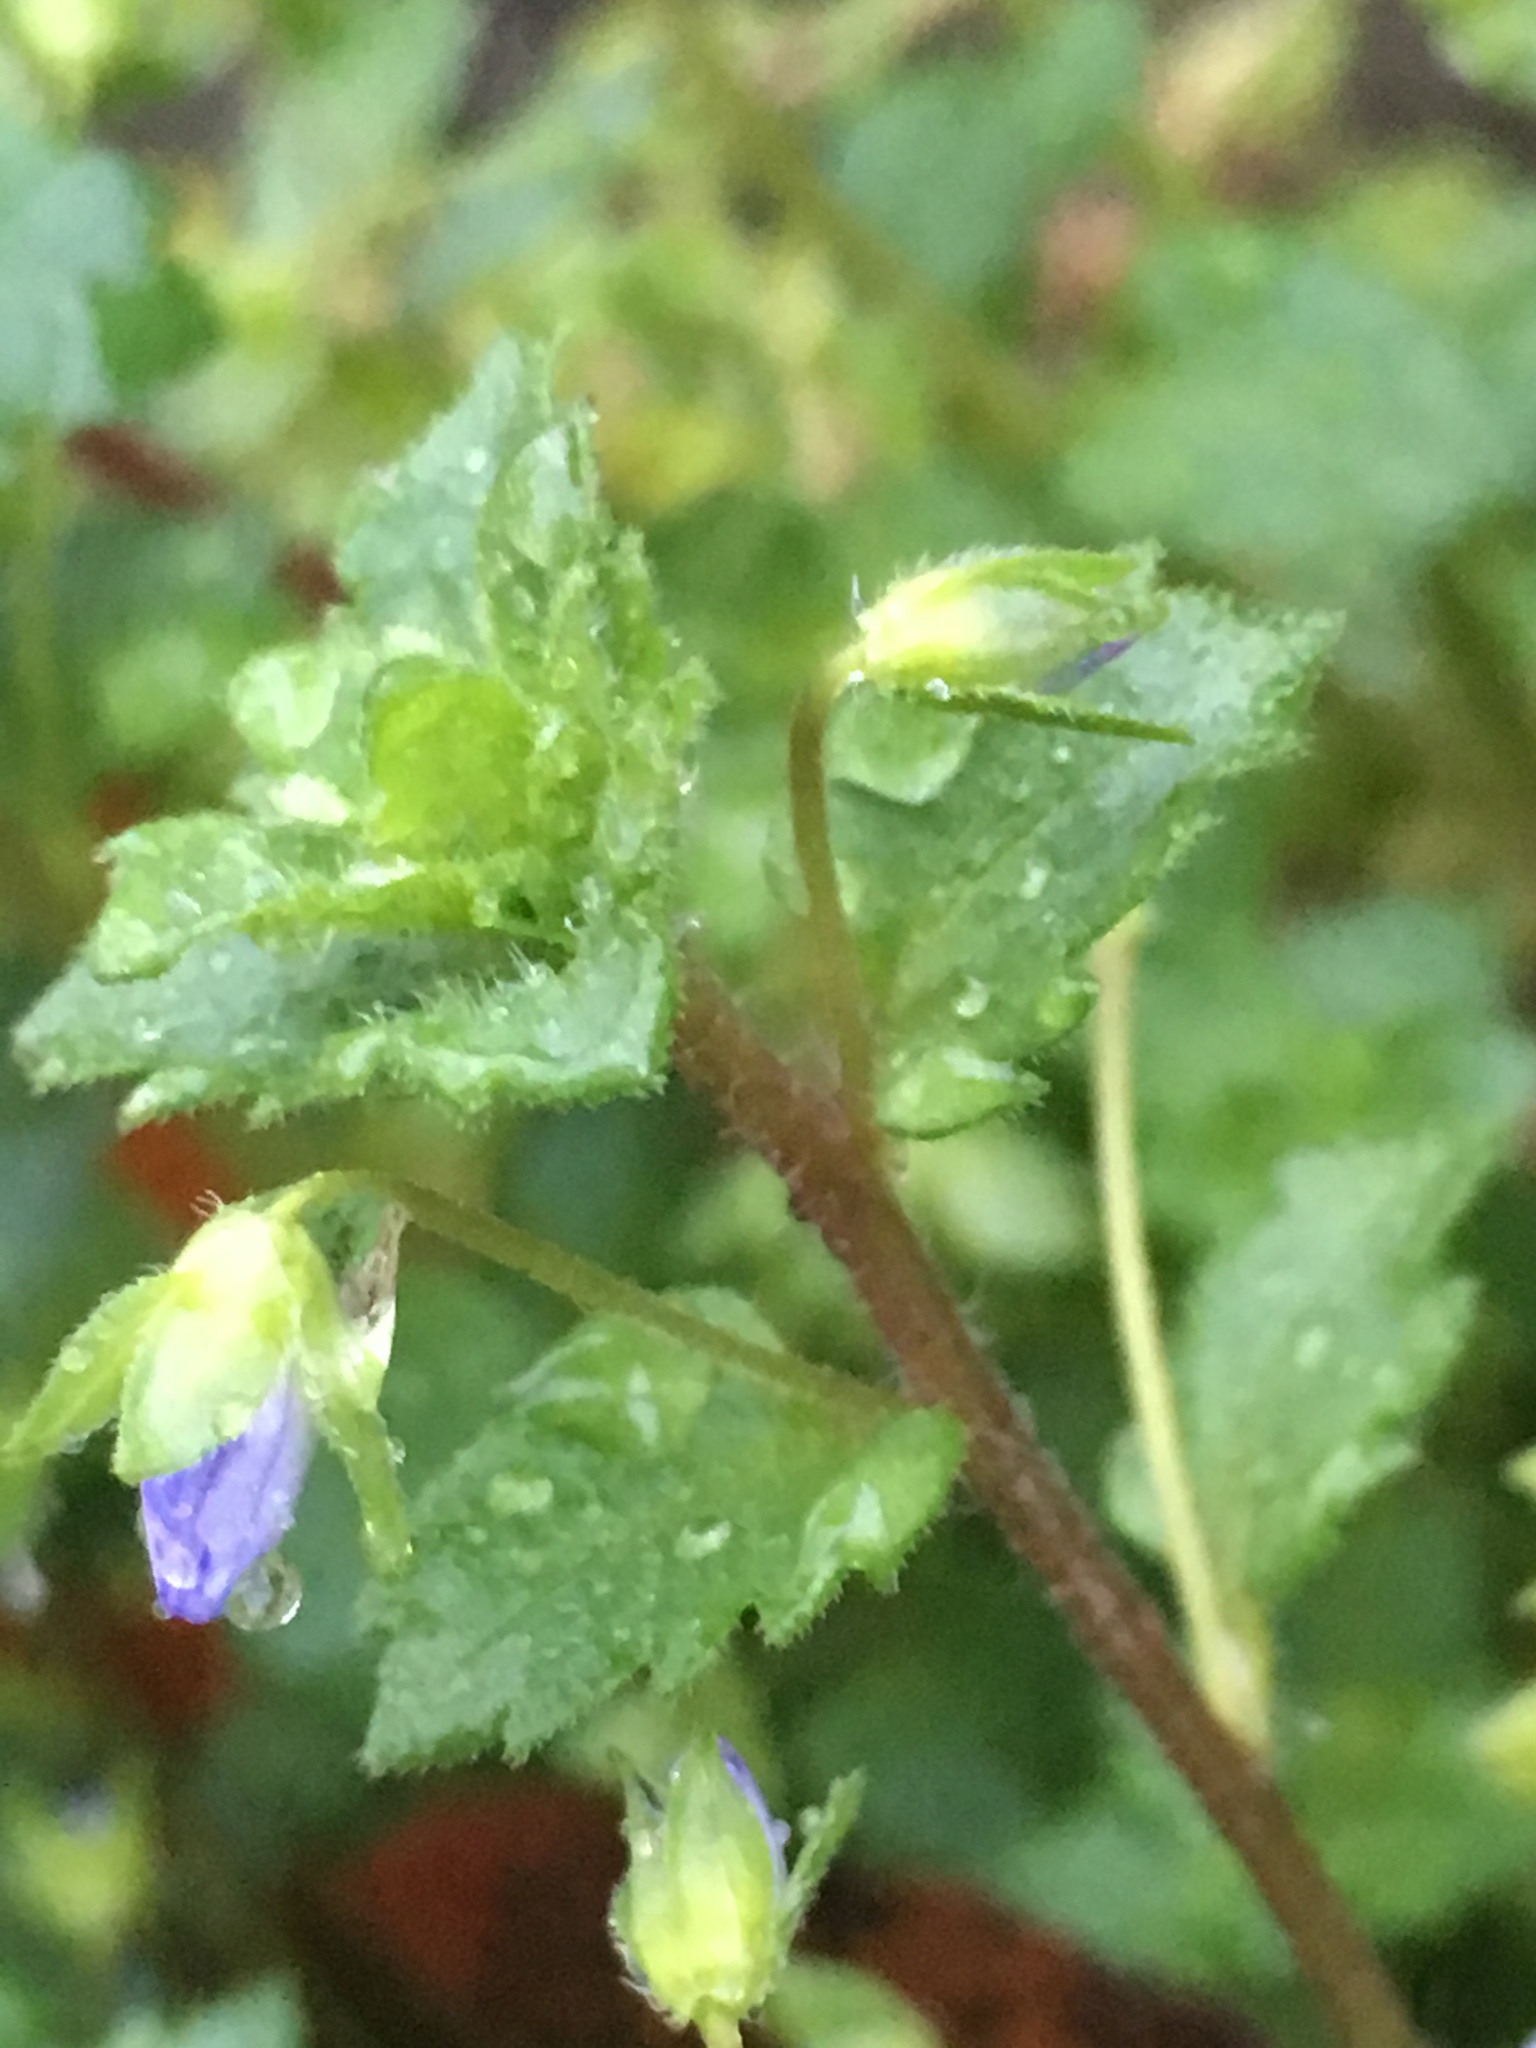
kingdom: Plantae
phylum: Tracheophyta
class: Magnoliopsida
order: Lamiales
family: Plantaginaceae
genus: Veronica
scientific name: Veronica persica
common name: Common field-speedwell
